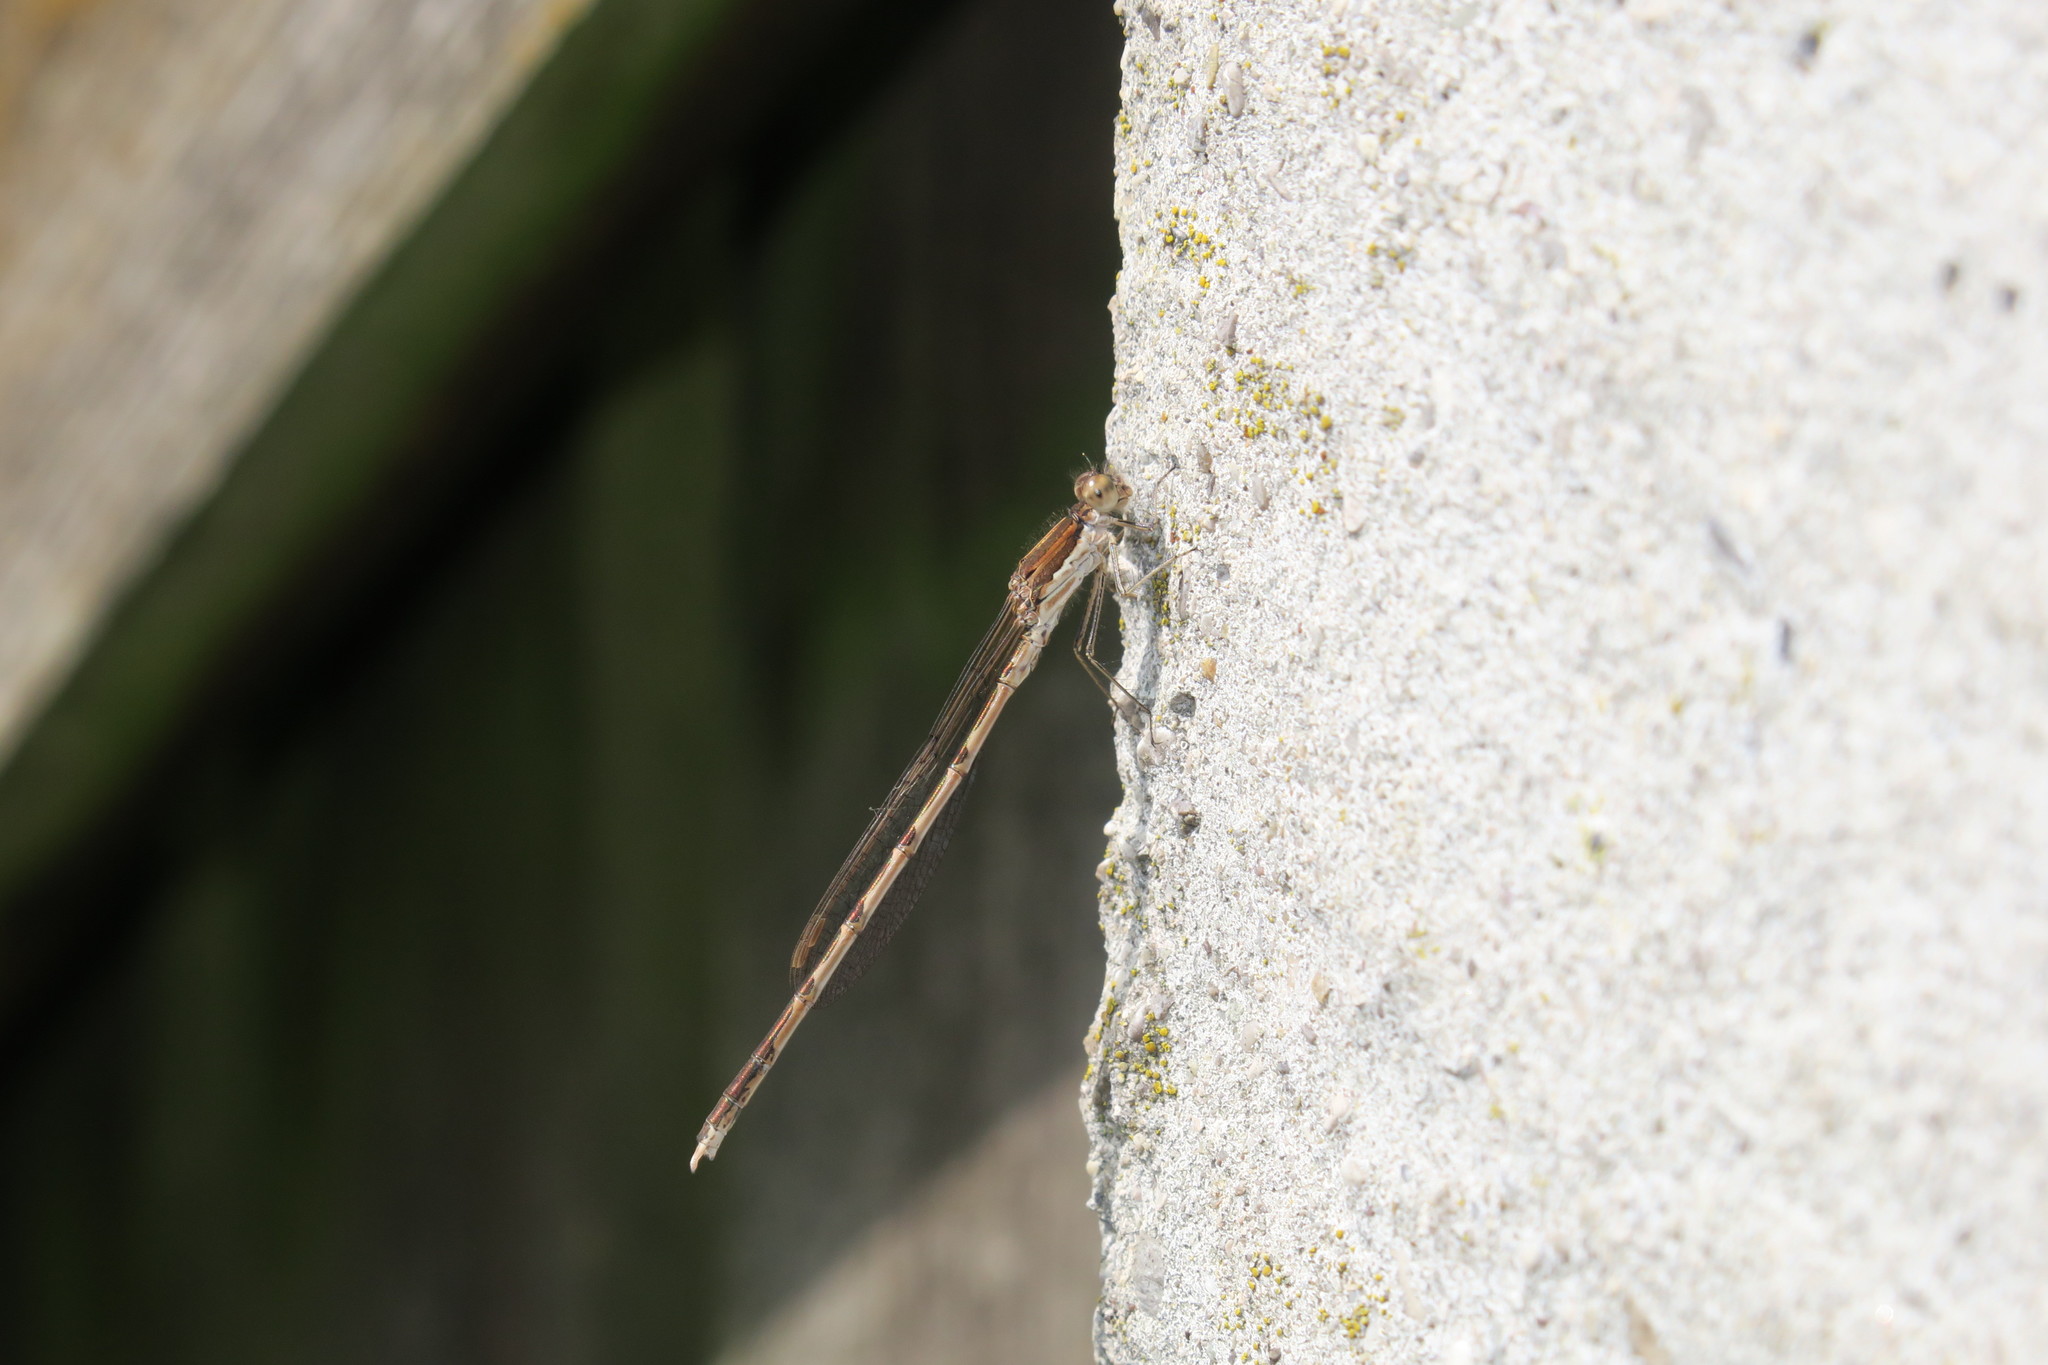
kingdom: Animalia
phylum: Arthropoda
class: Insecta
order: Odonata
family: Lestidae
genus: Sympecma
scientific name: Sympecma fusca
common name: Common winter damsel
